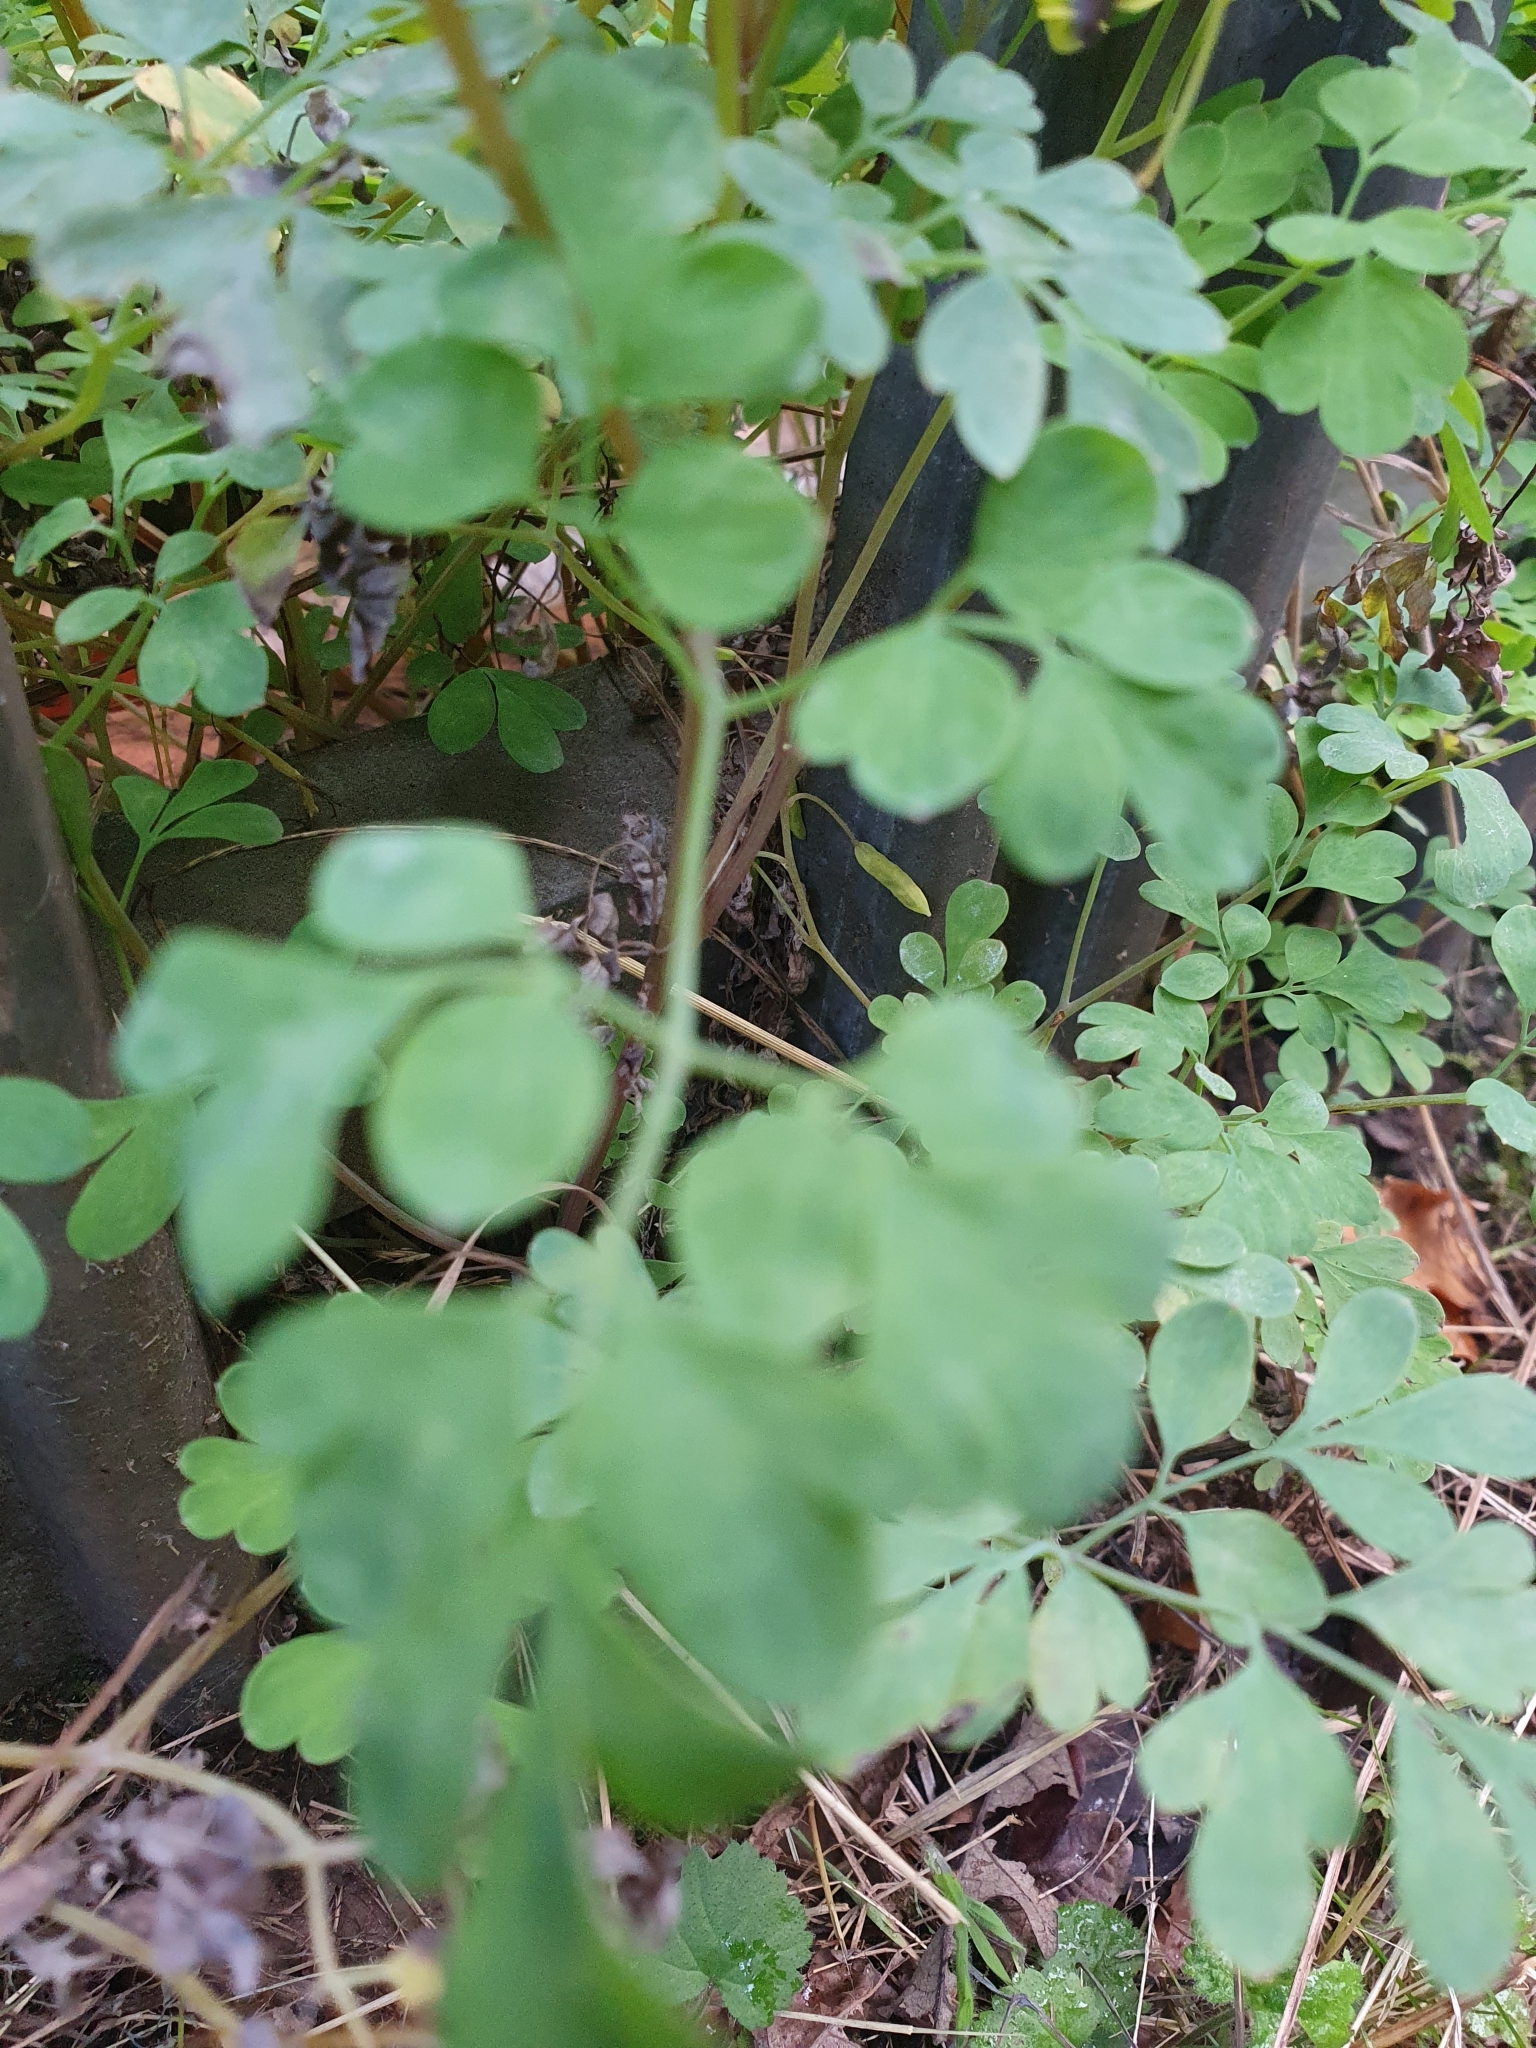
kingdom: Plantae
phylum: Tracheophyta
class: Magnoliopsida
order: Ranunculales
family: Papaveraceae
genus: Pseudofumaria
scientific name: Pseudofumaria lutea
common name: Yellow corydalis
